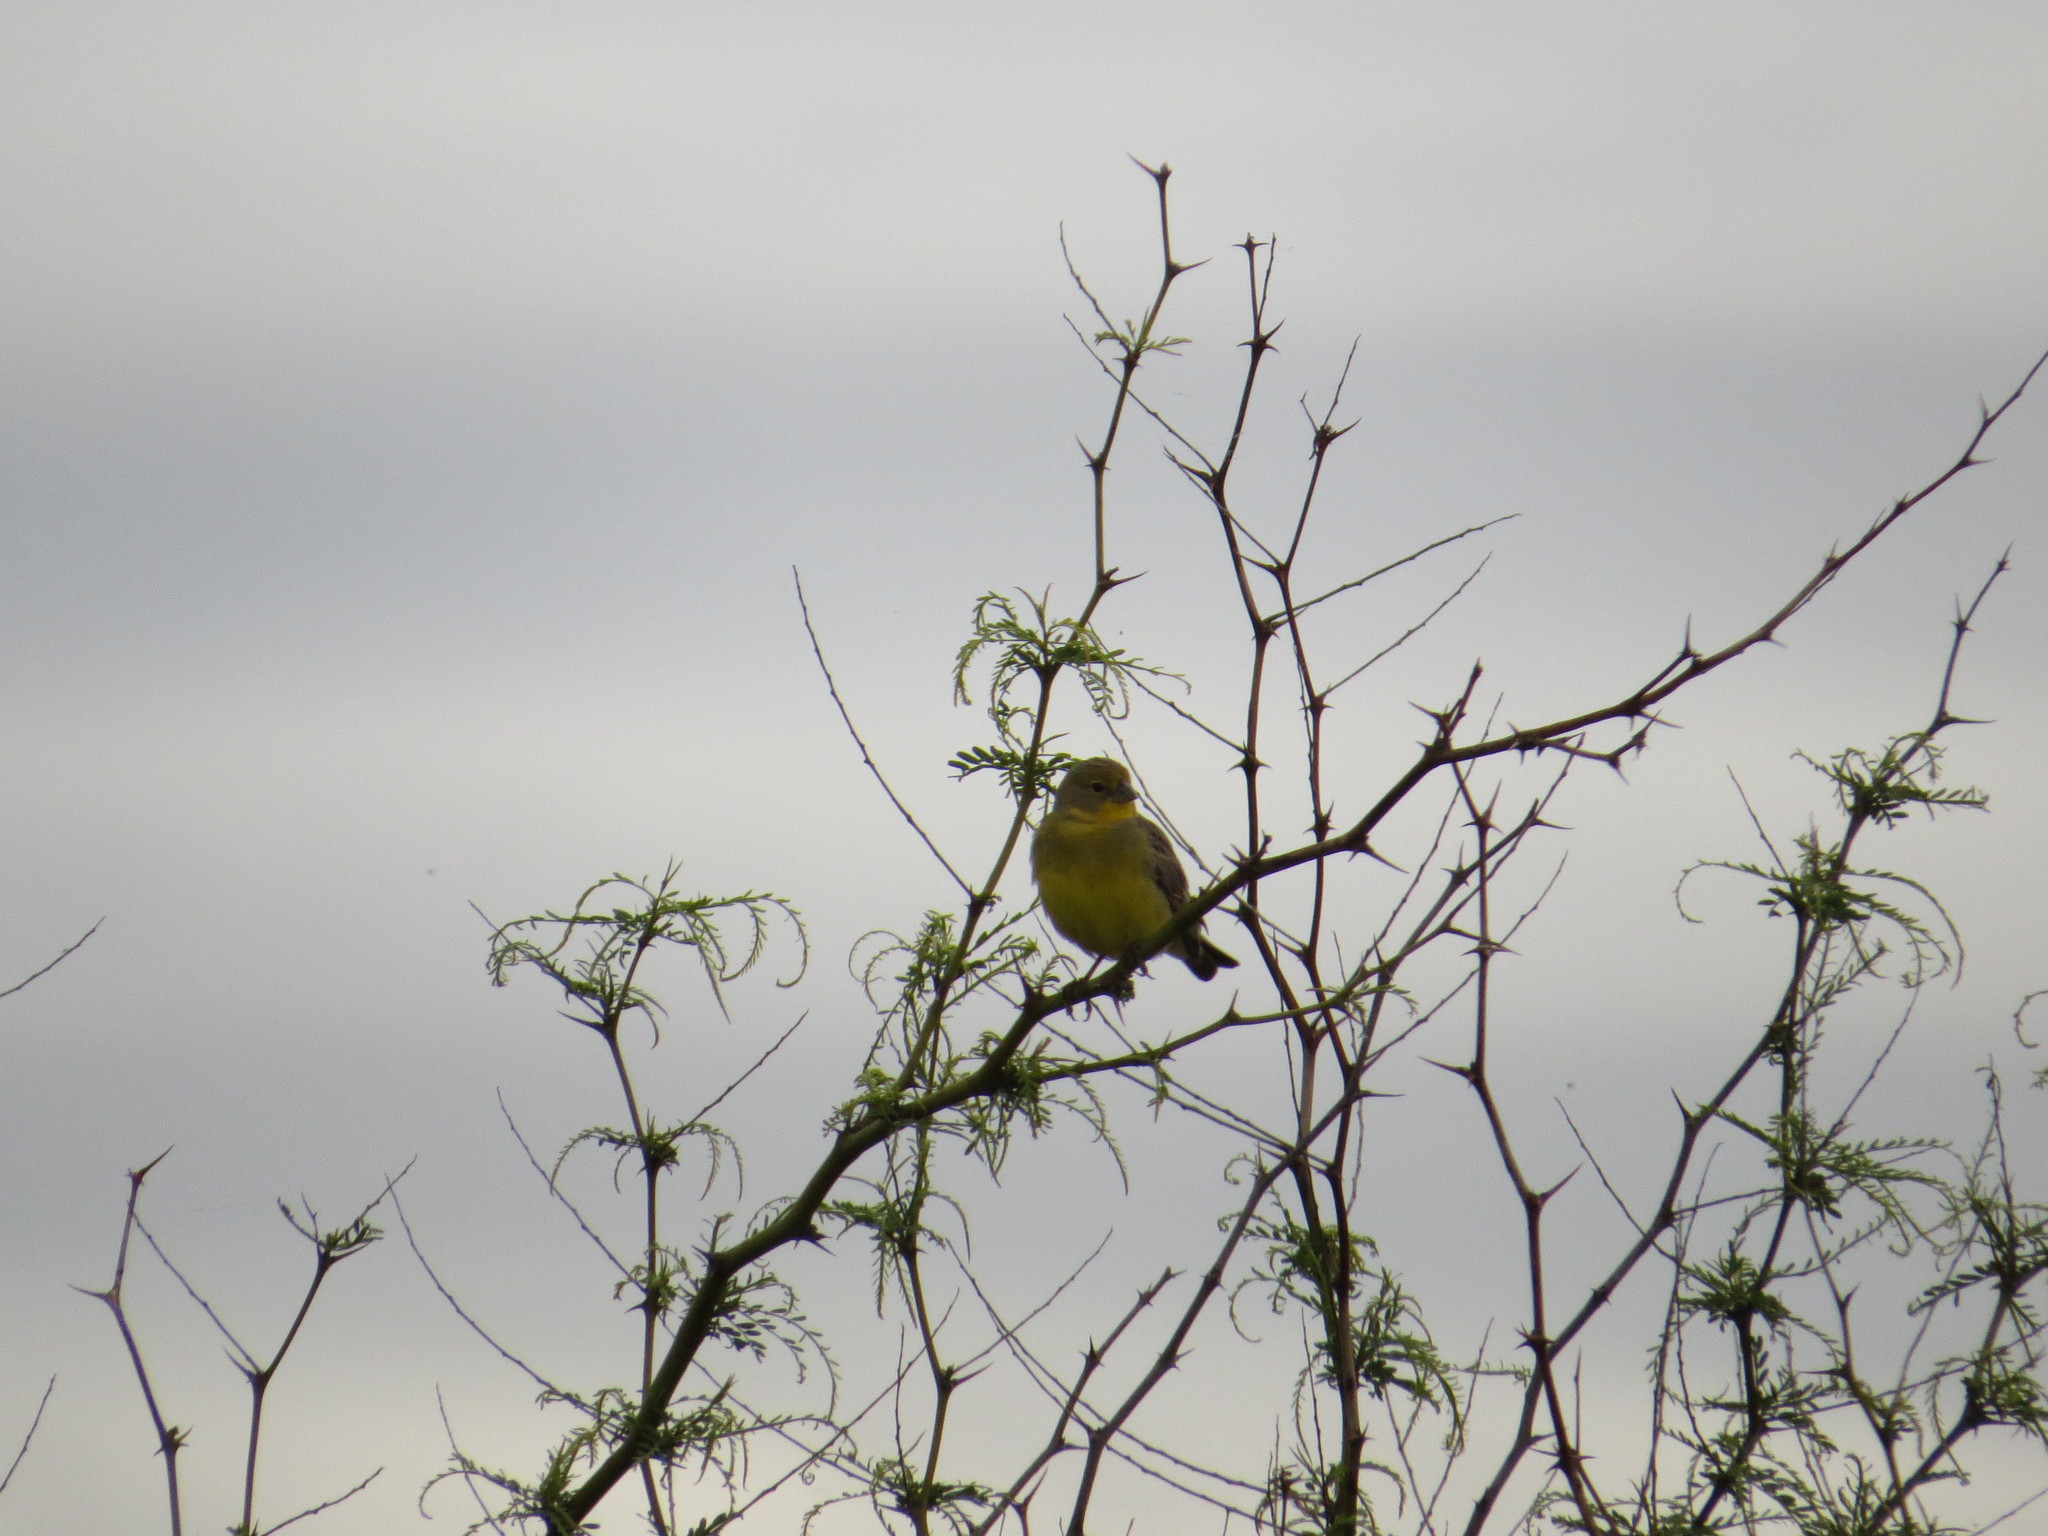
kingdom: Animalia
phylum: Chordata
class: Aves
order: Passeriformes
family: Thraupidae
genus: Sicalis
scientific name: Sicalis luteola
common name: Grassland yellow-finch
